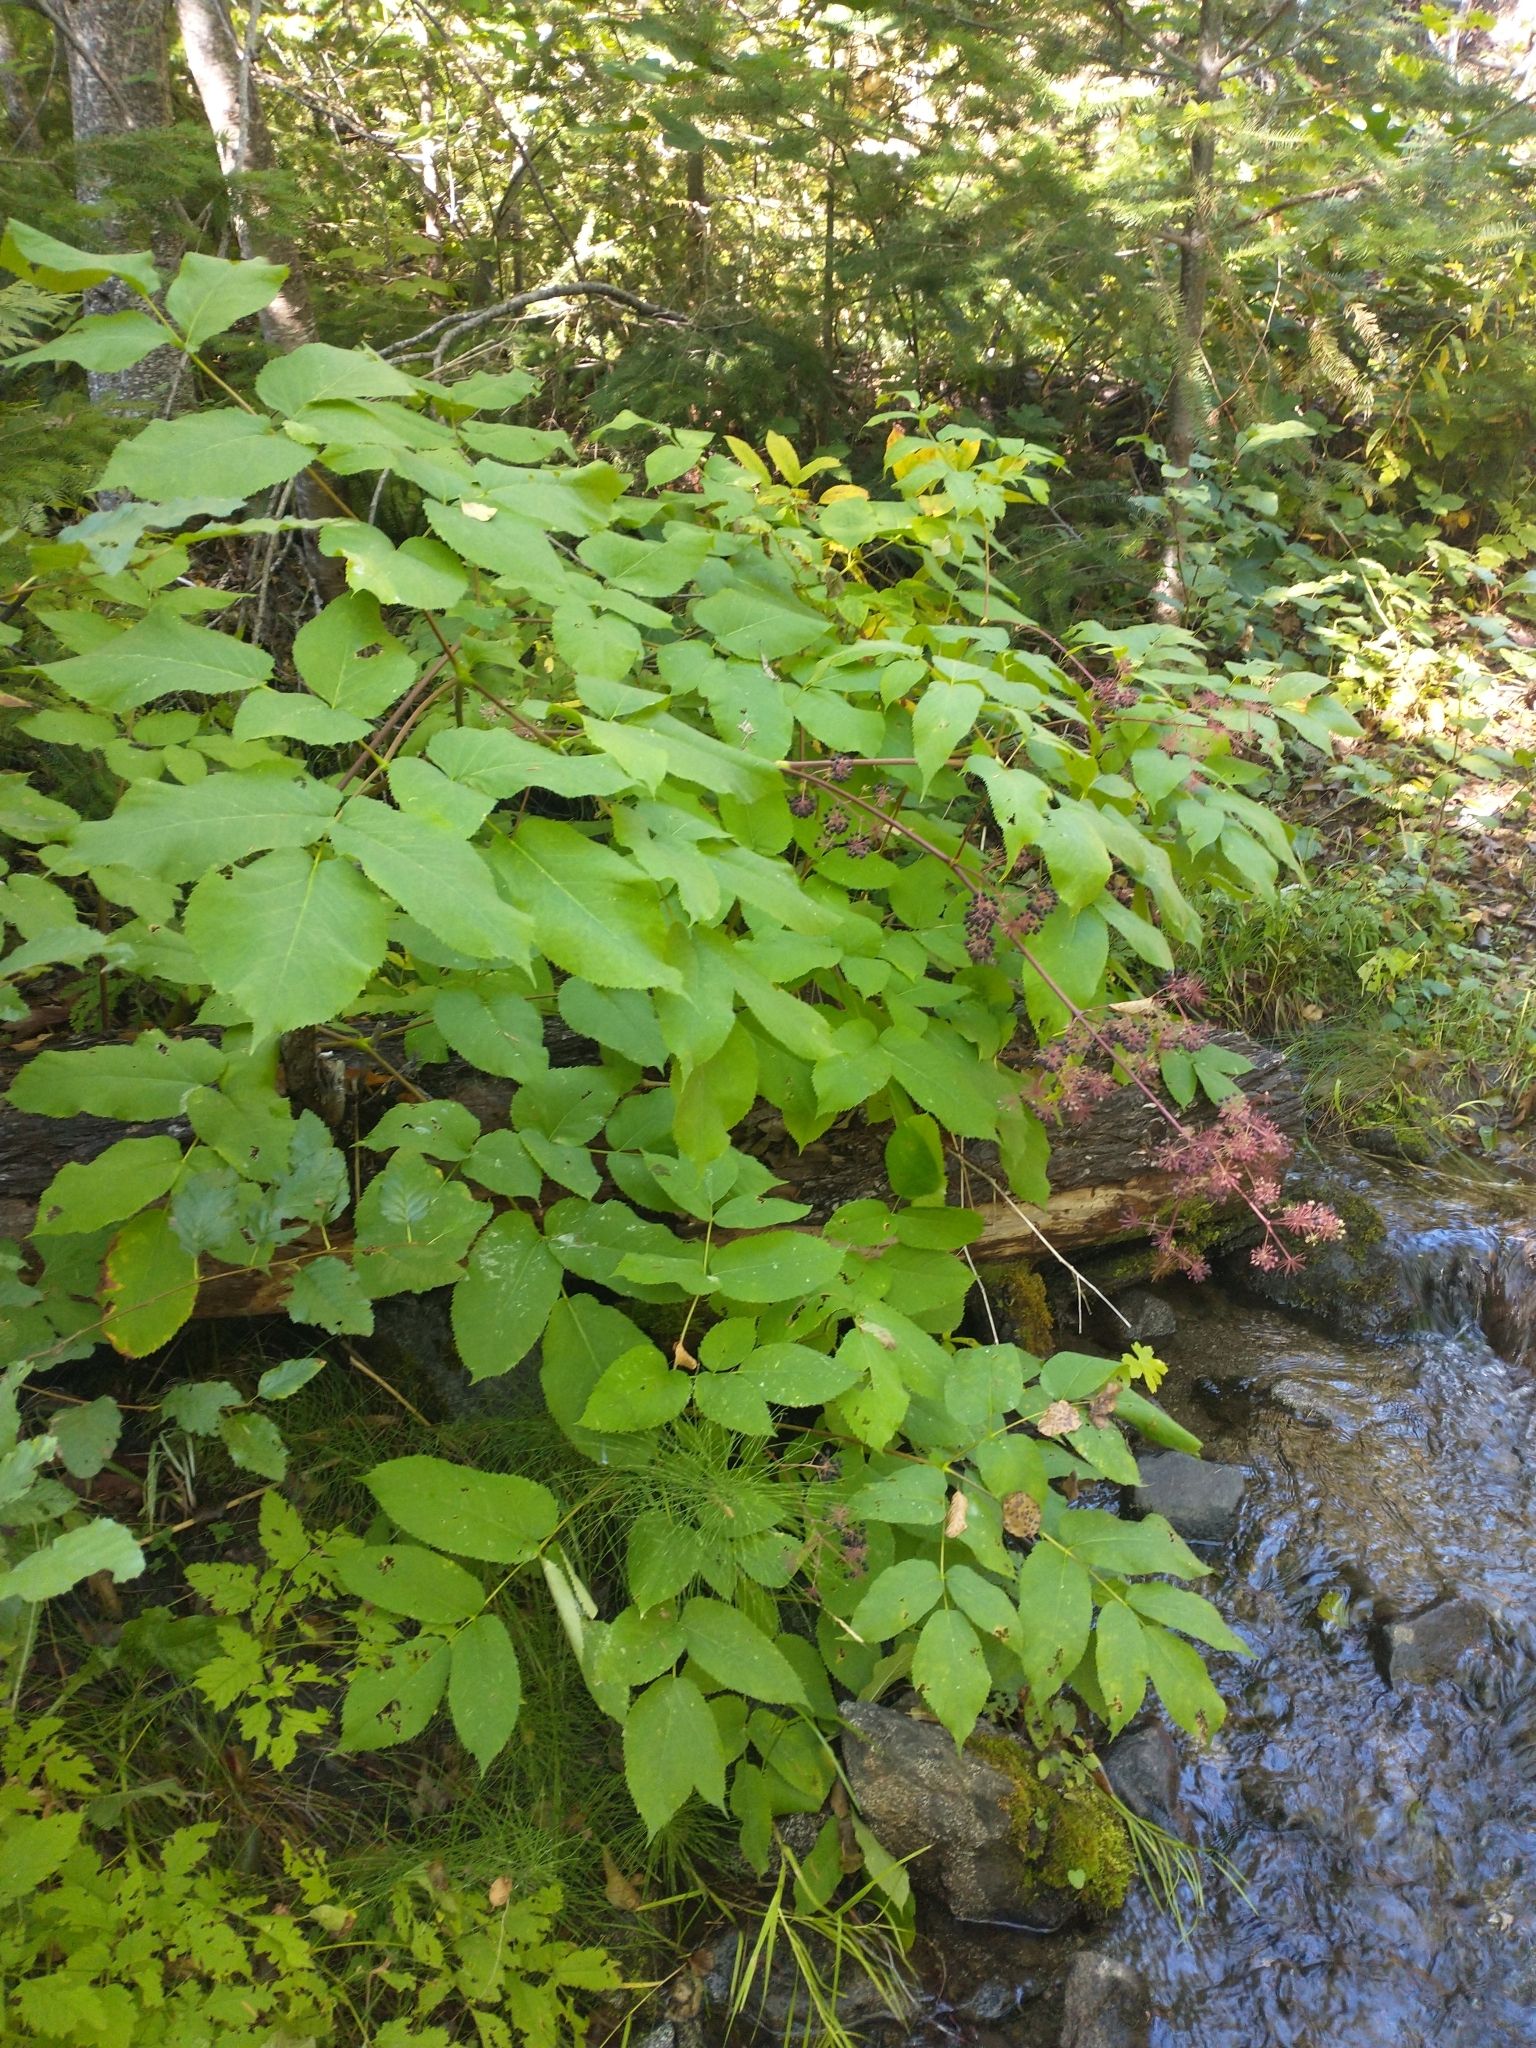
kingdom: Plantae
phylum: Tracheophyta
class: Magnoliopsida
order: Apiales
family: Araliaceae
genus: Aralia
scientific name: Aralia californica
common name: California-ginseng
